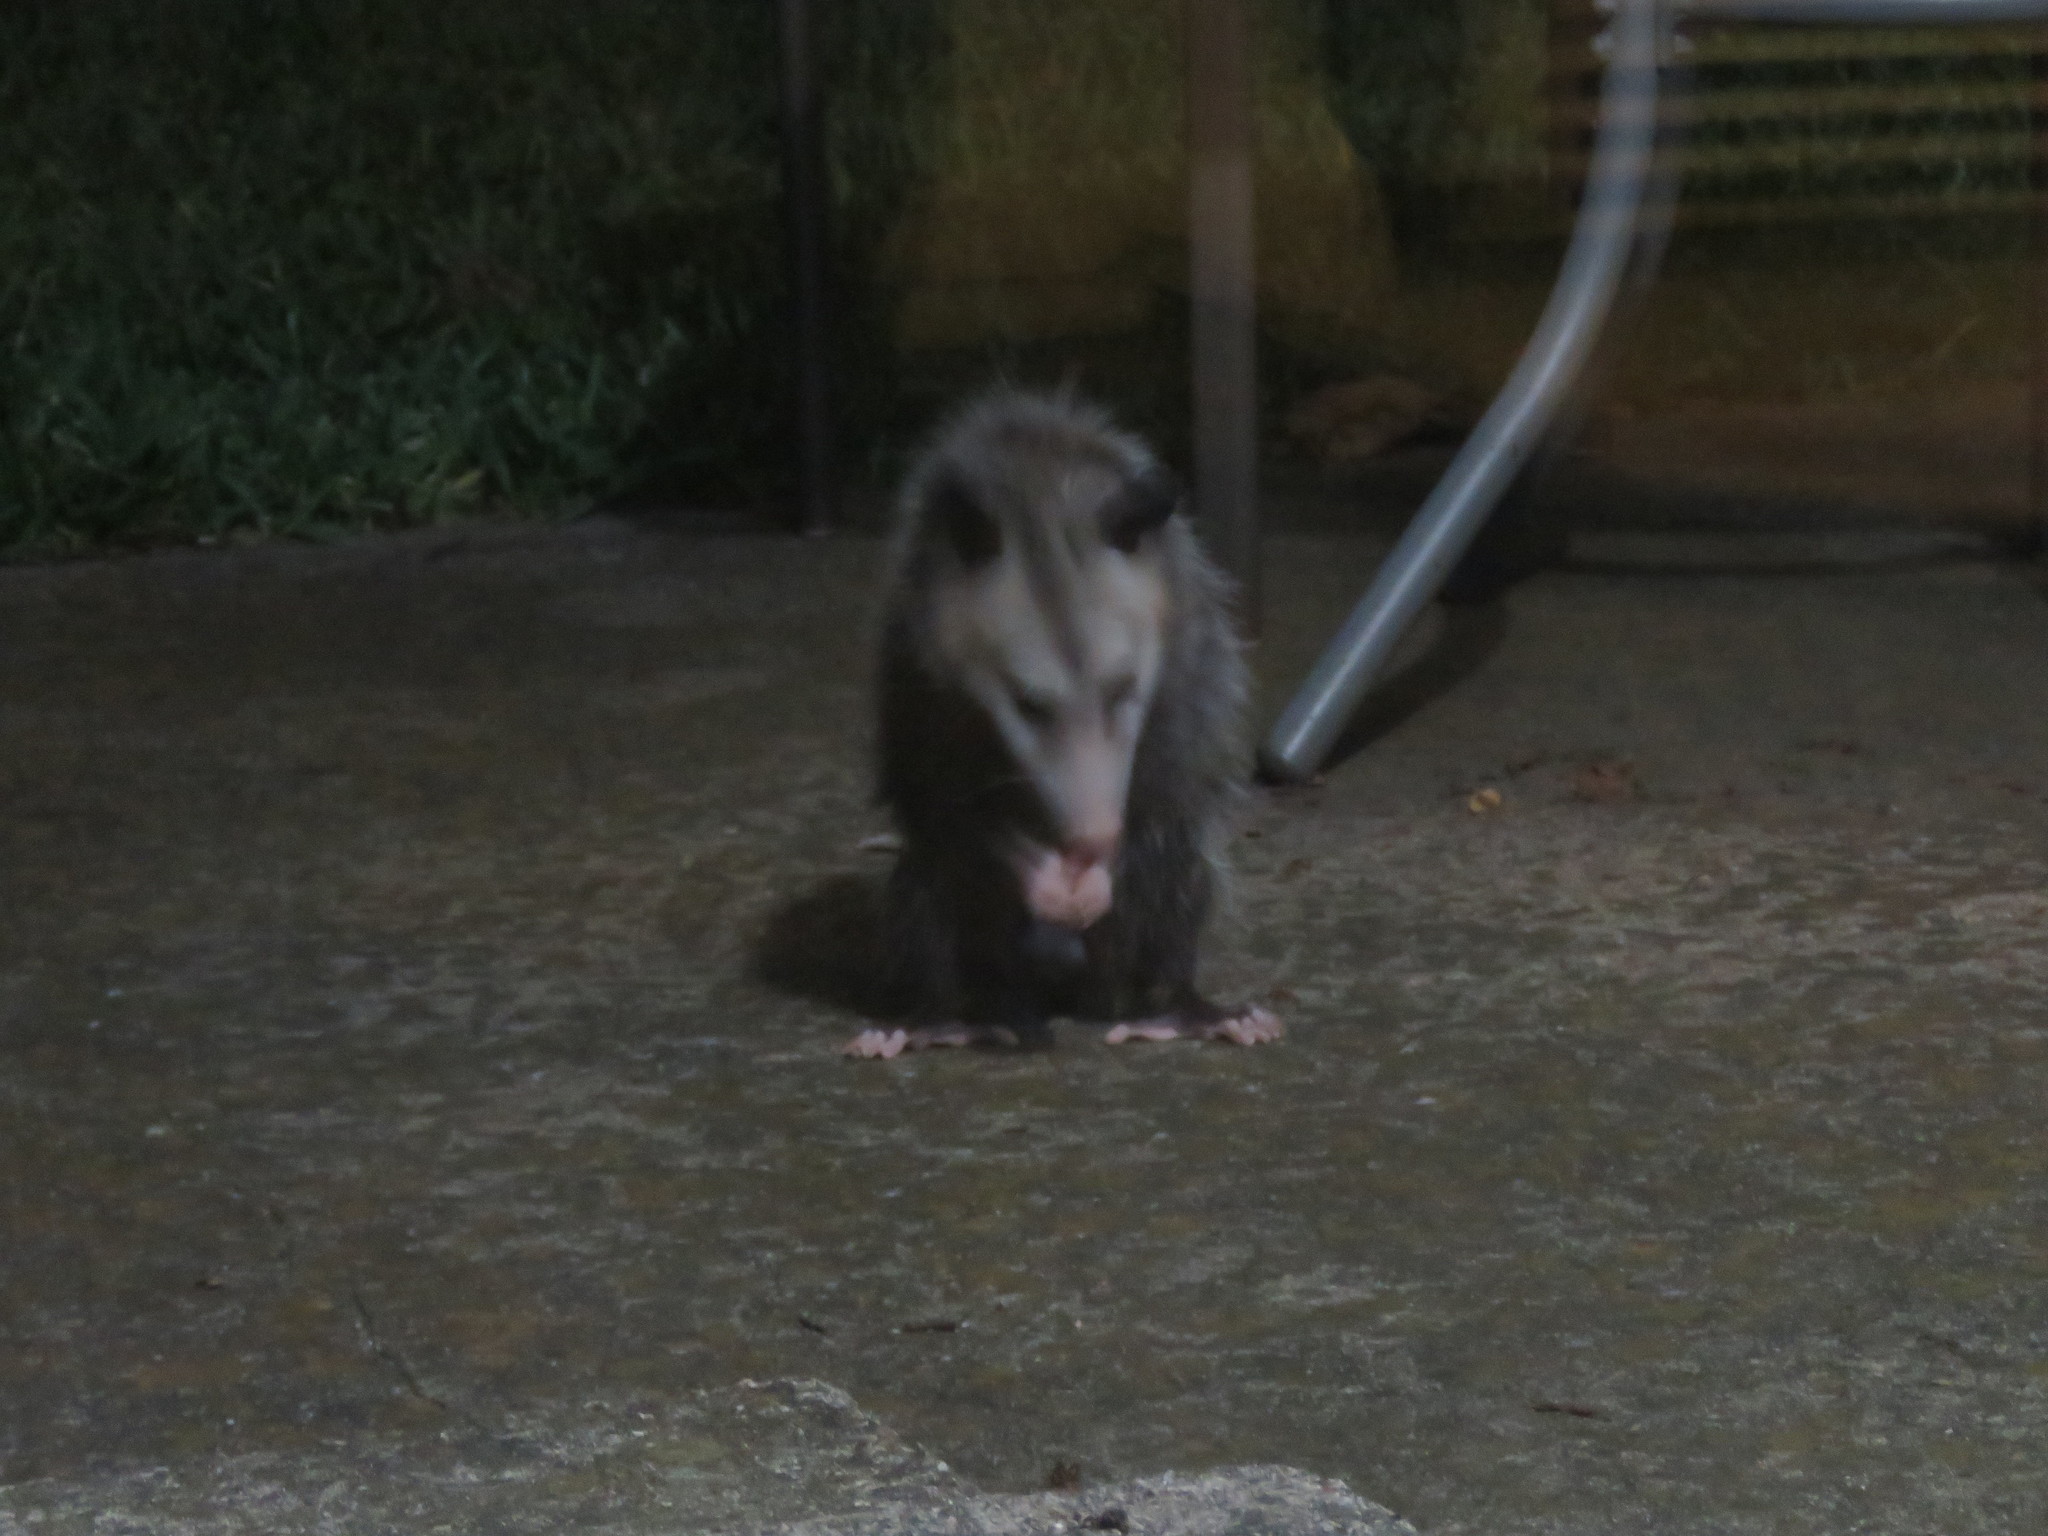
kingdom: Animalia
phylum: Chordata
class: Mammalia
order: Didelphimorphia
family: Didelphidae
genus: Didelphis
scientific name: Didelphis virginiana
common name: Virginia opossum
